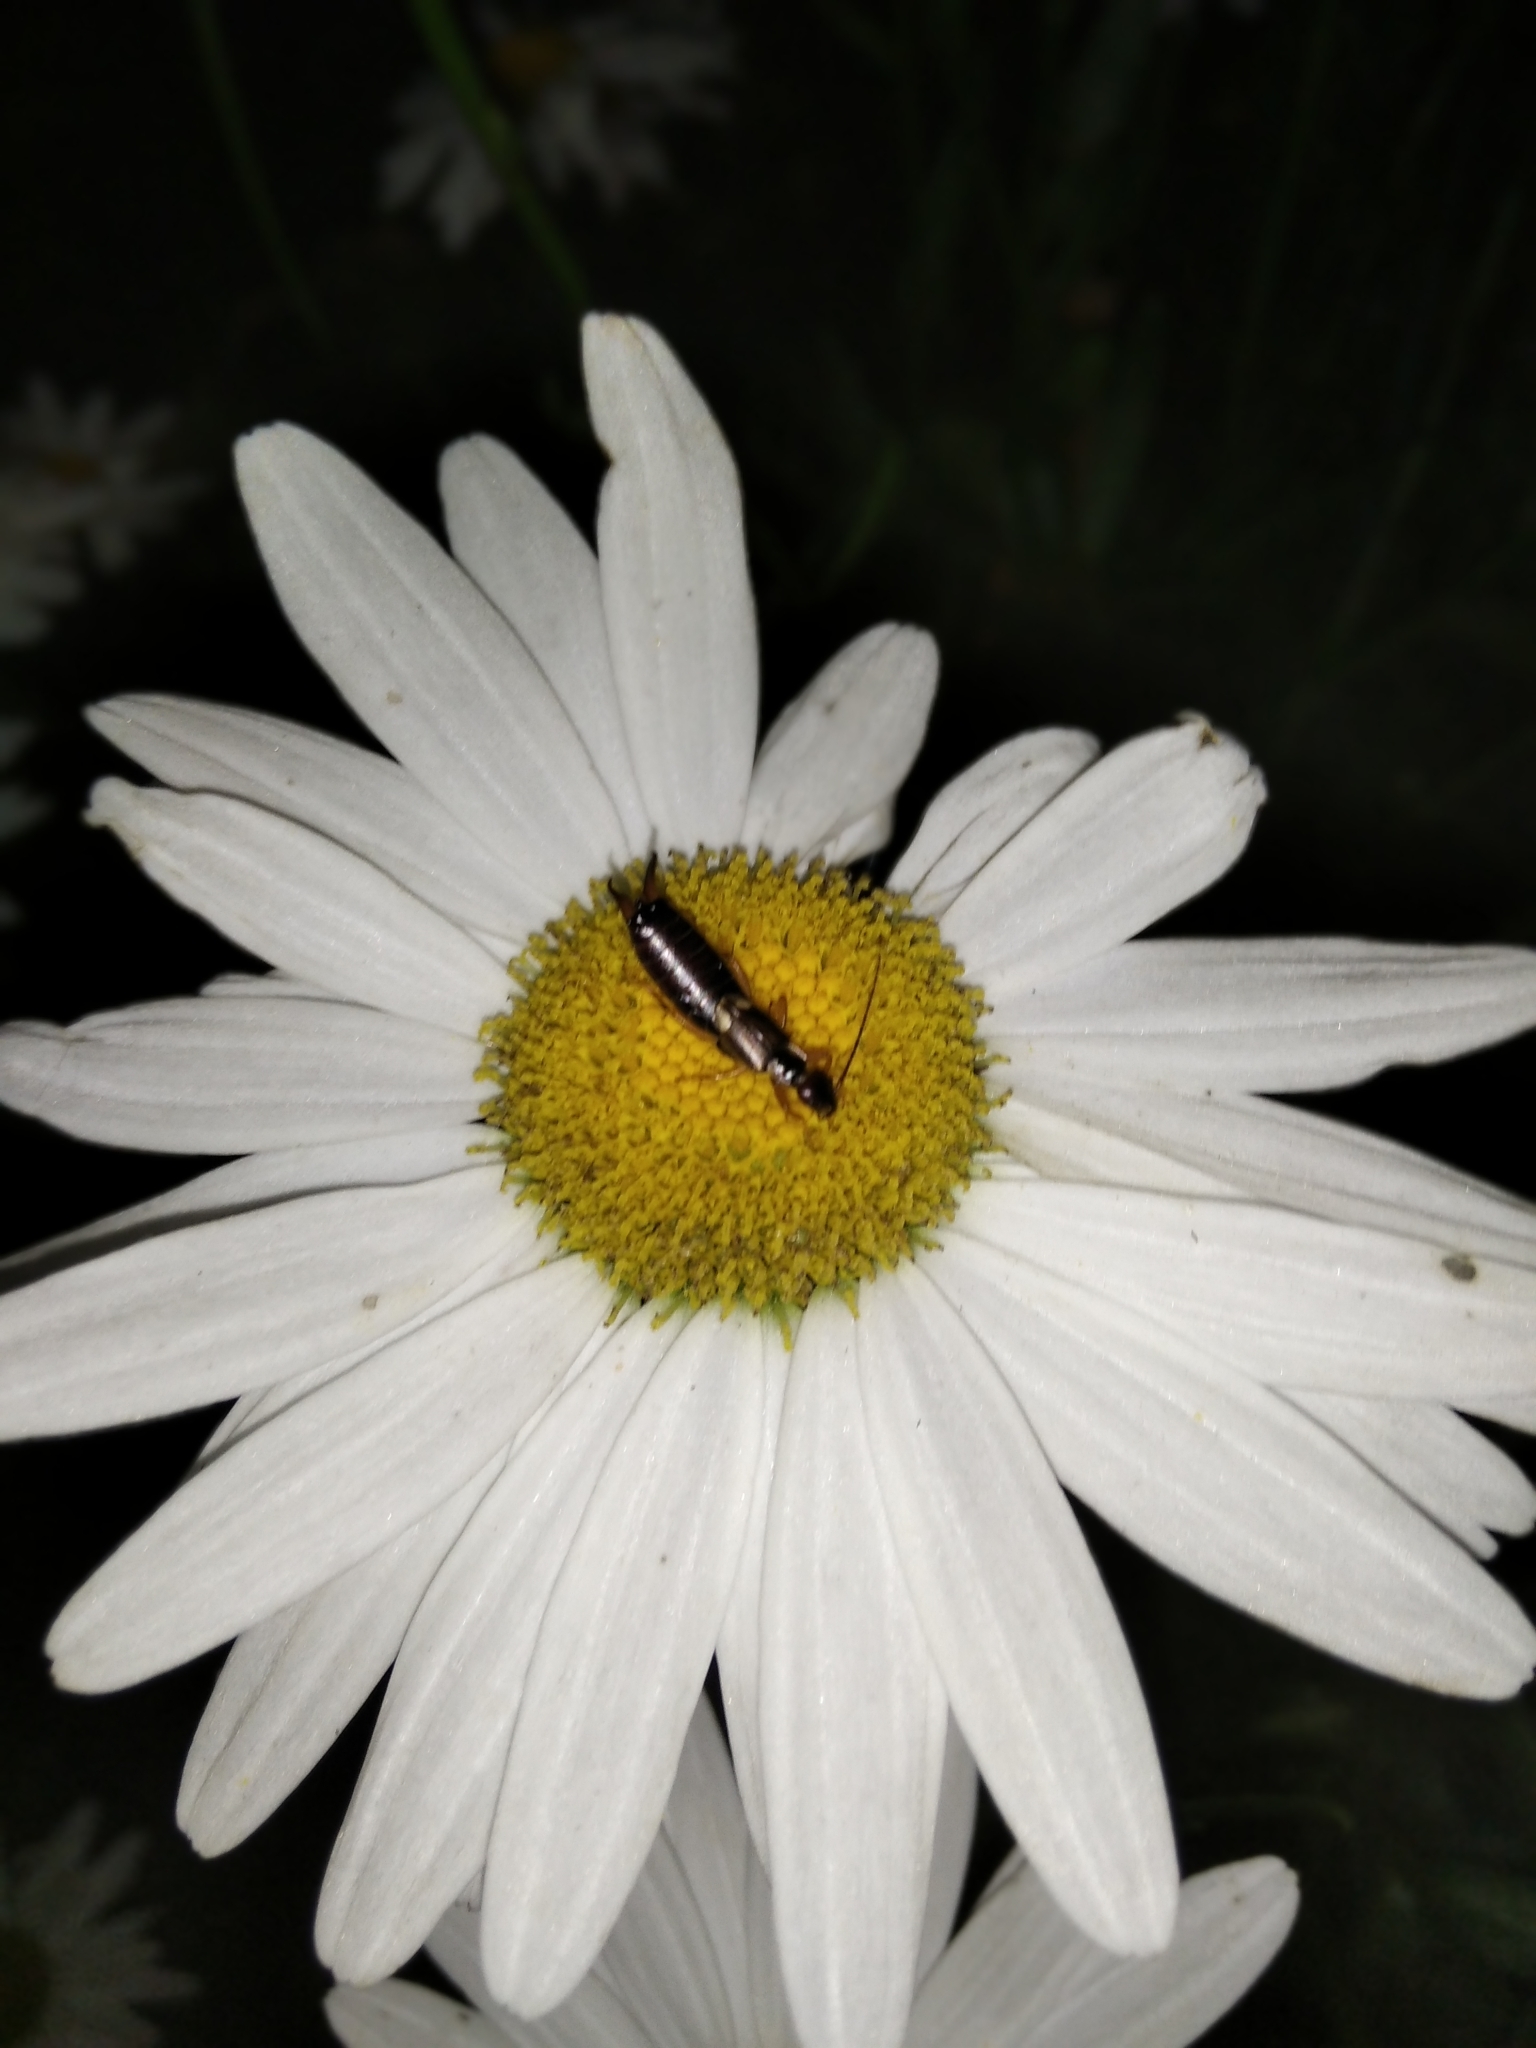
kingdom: Animalia
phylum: Arthropoda
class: Insecta
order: Dermaptera
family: Forficulidae
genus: Forficula
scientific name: Forficula
